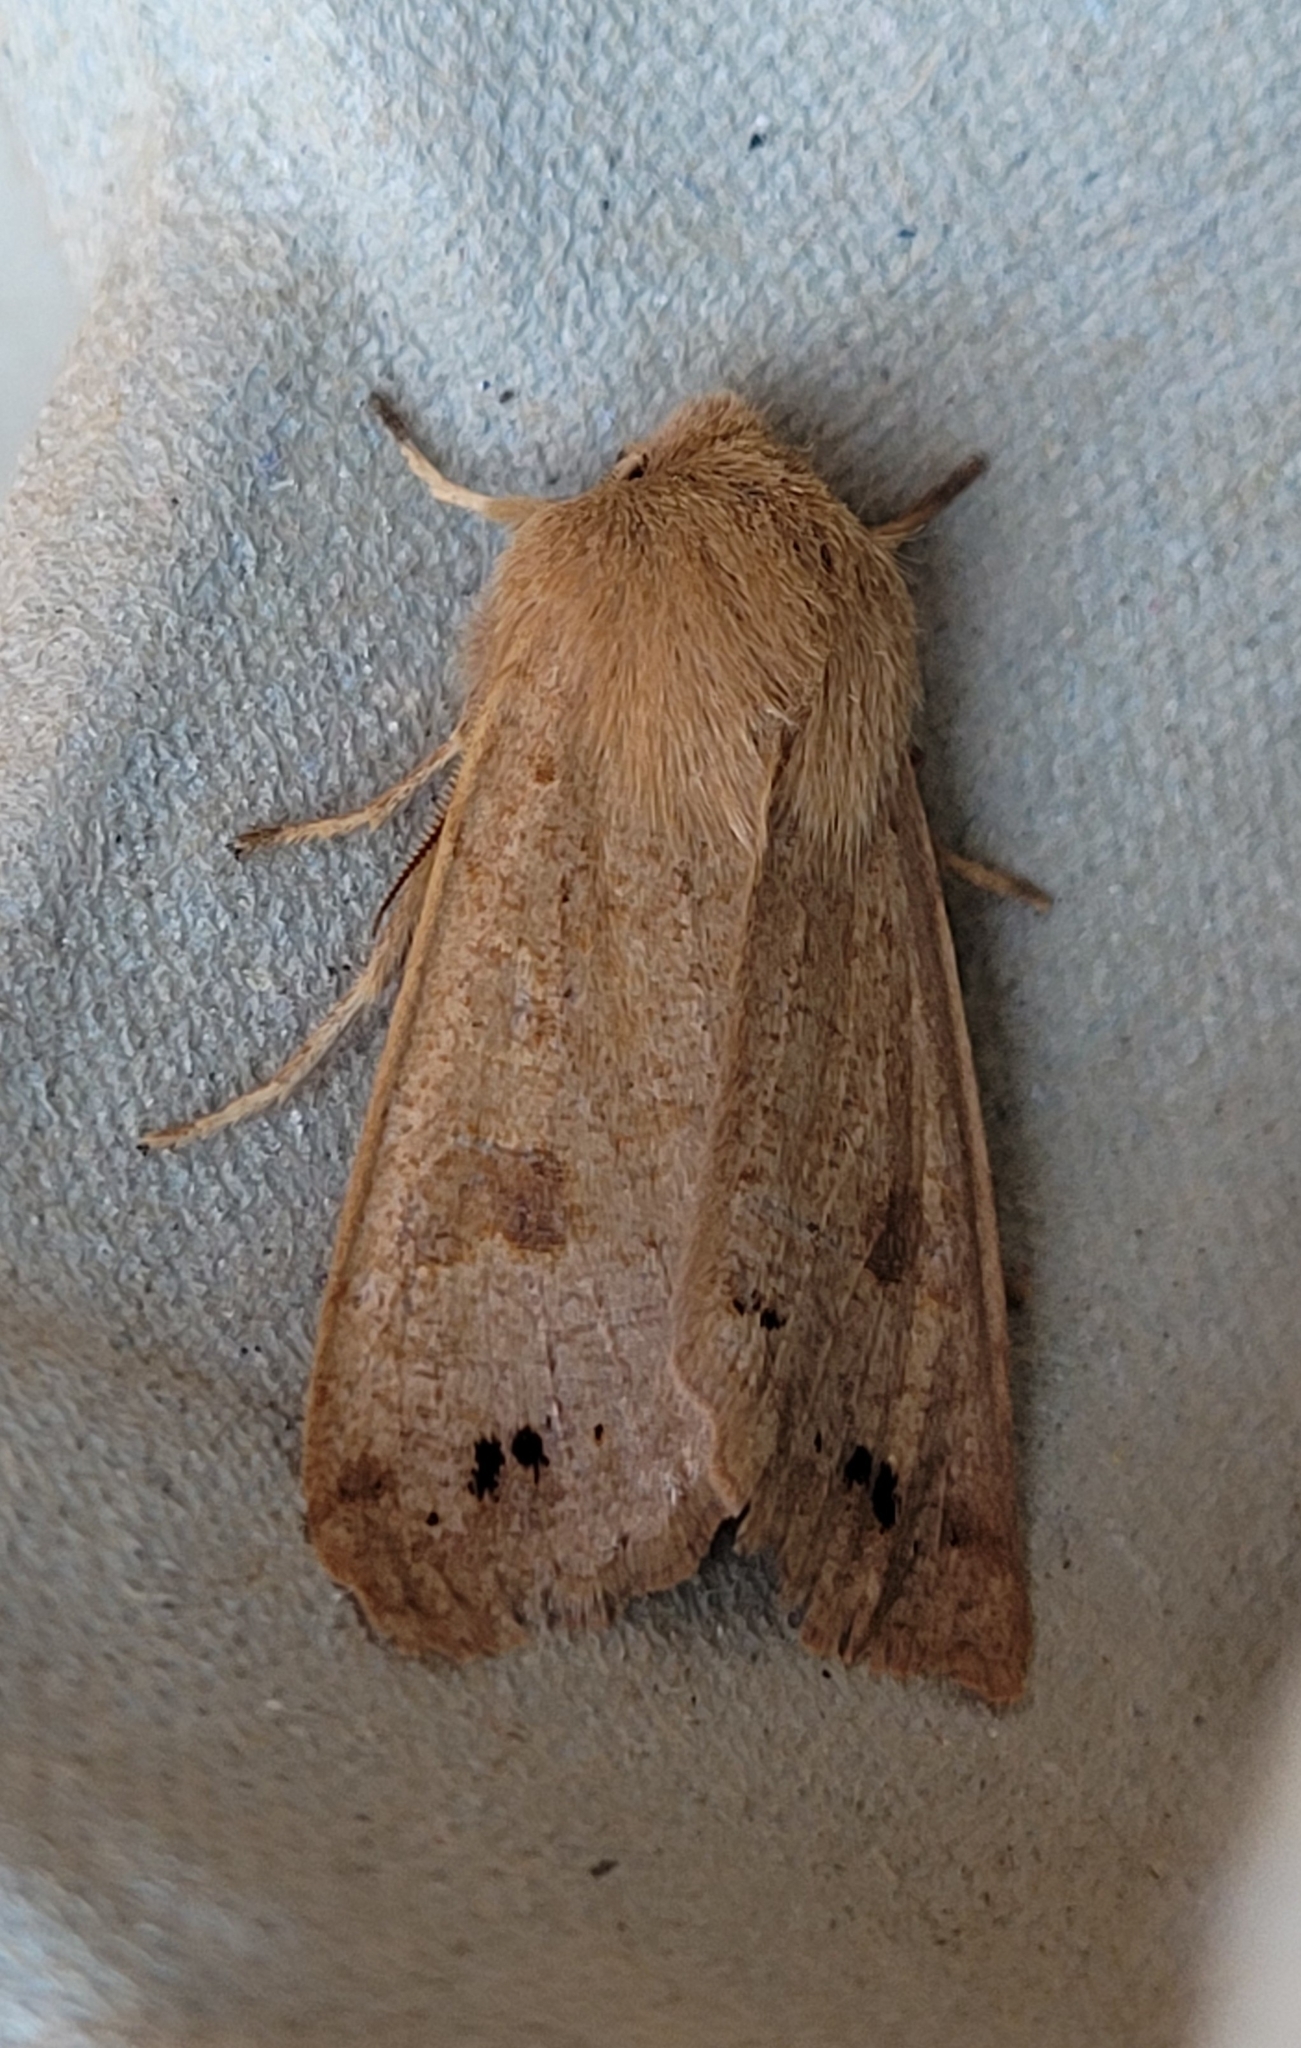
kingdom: Animalia
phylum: Arthropoda
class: Insecta
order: Lepidoptera
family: Noctuidae
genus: Anorthoa
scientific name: Anorthoa munda
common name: Twin-spotted quaker
